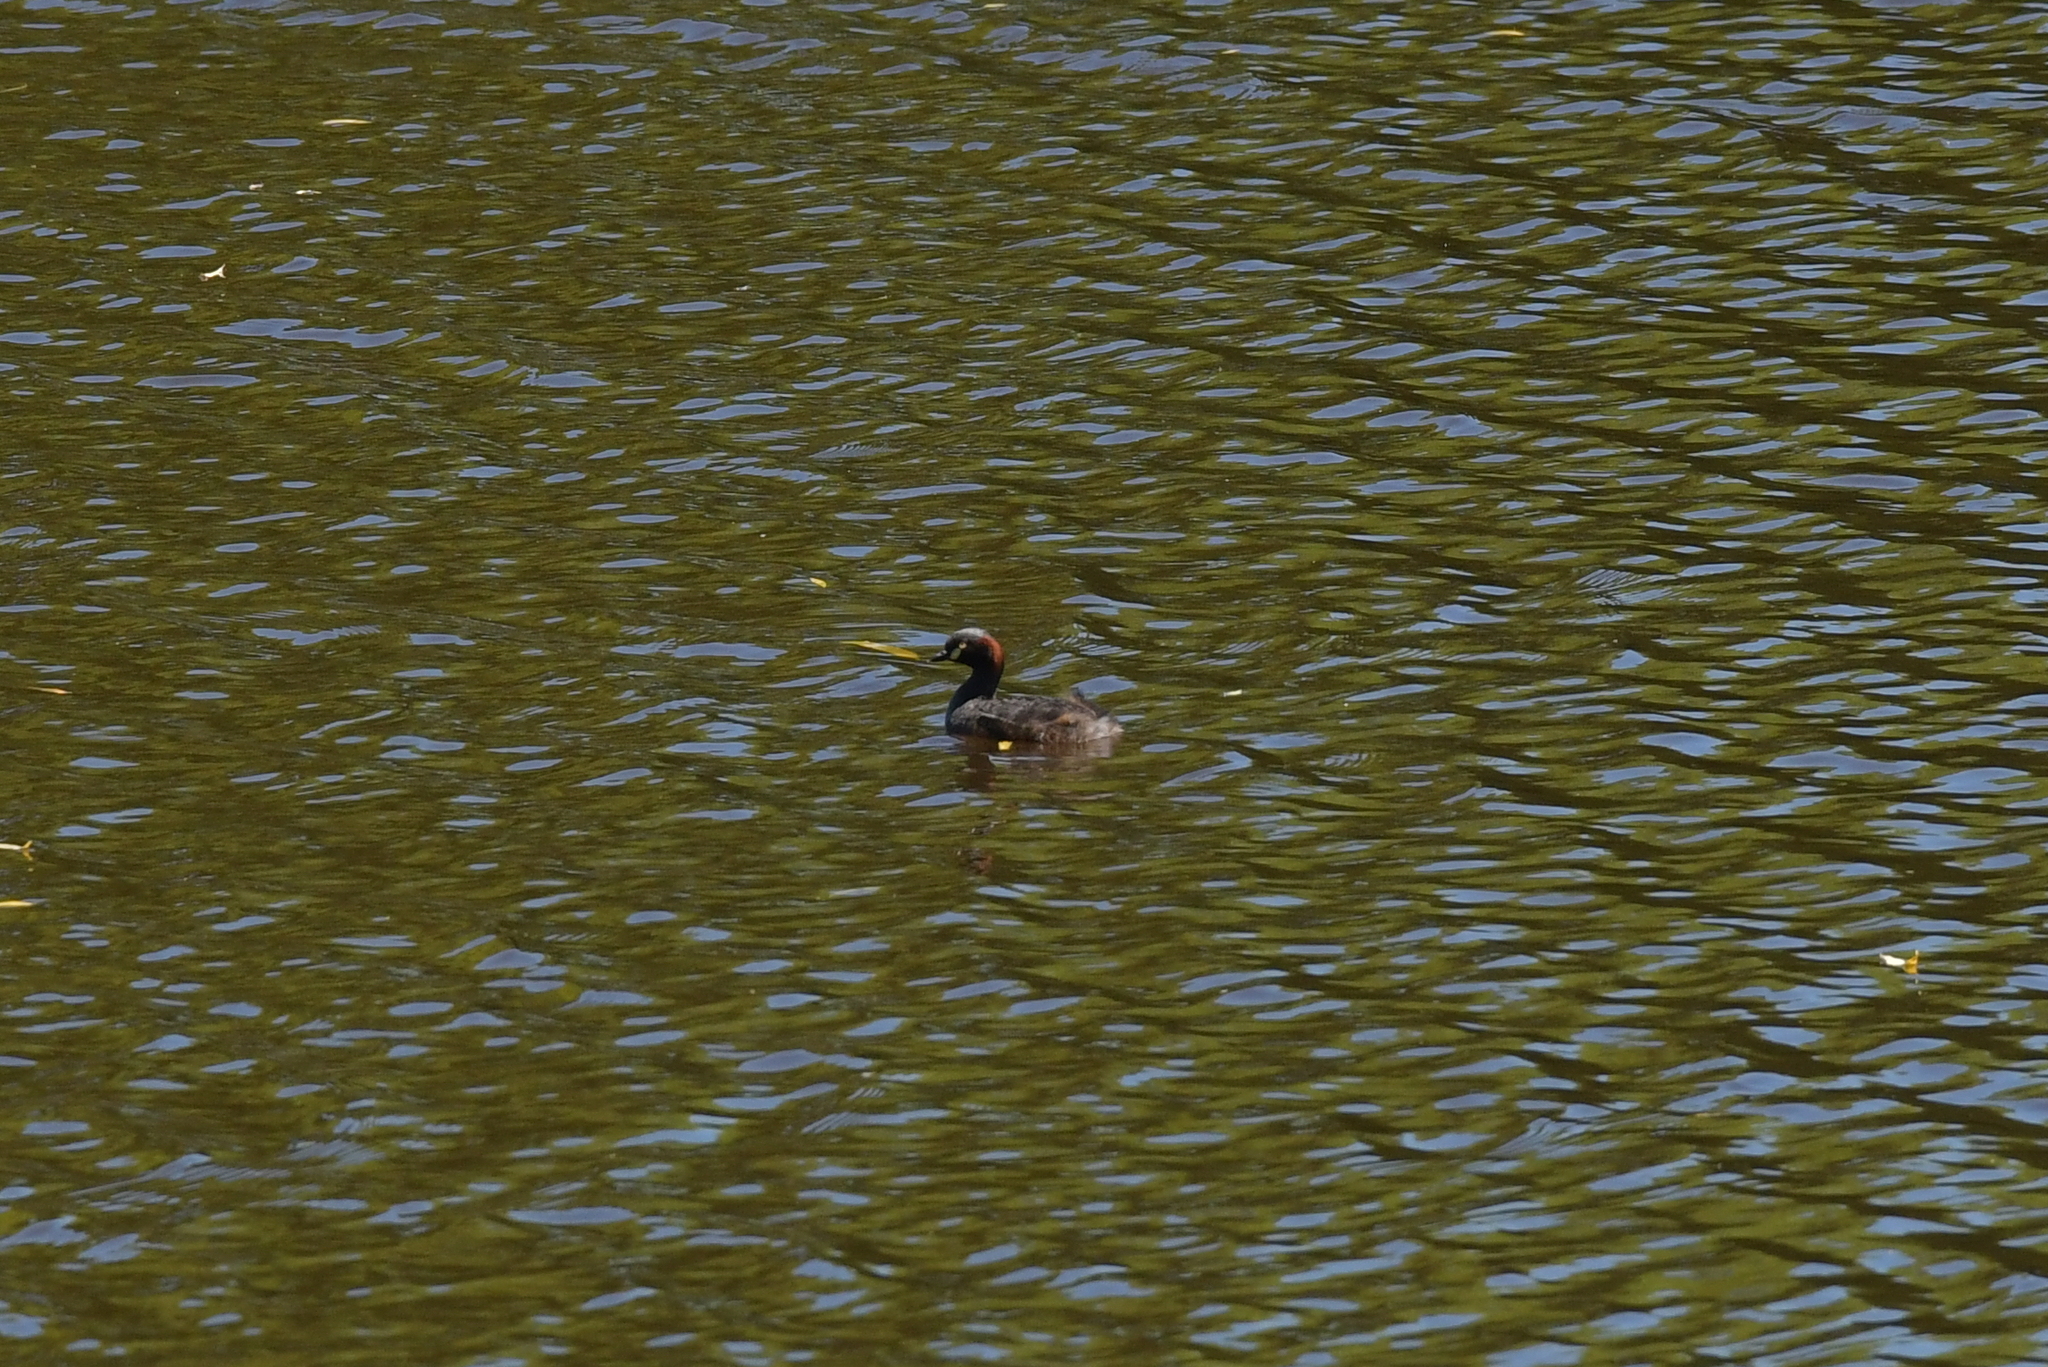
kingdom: Animalia
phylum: Chordata
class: Aves
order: Podicipediformes
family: Podicipedidae
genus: Tachybaptus
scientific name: Tachybaptus novaehollandiae
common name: Australasian grebe
